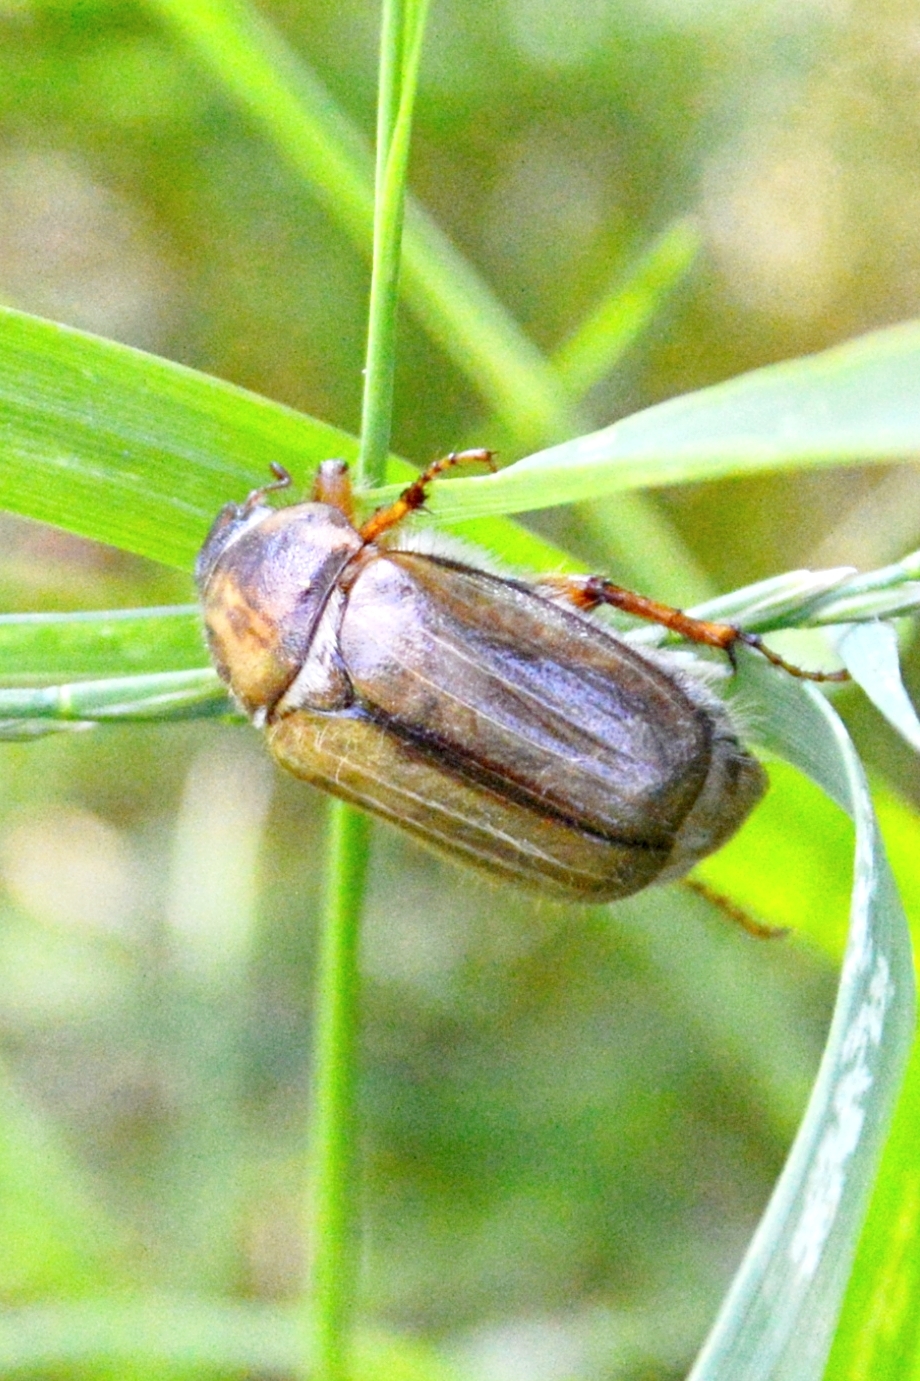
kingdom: Animalia
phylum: Arthropoda
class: Insecta
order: Coleoptera
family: Scarabaeidae
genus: Amphimallon
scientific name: Amphimallon solstitiale
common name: Summer chafer
